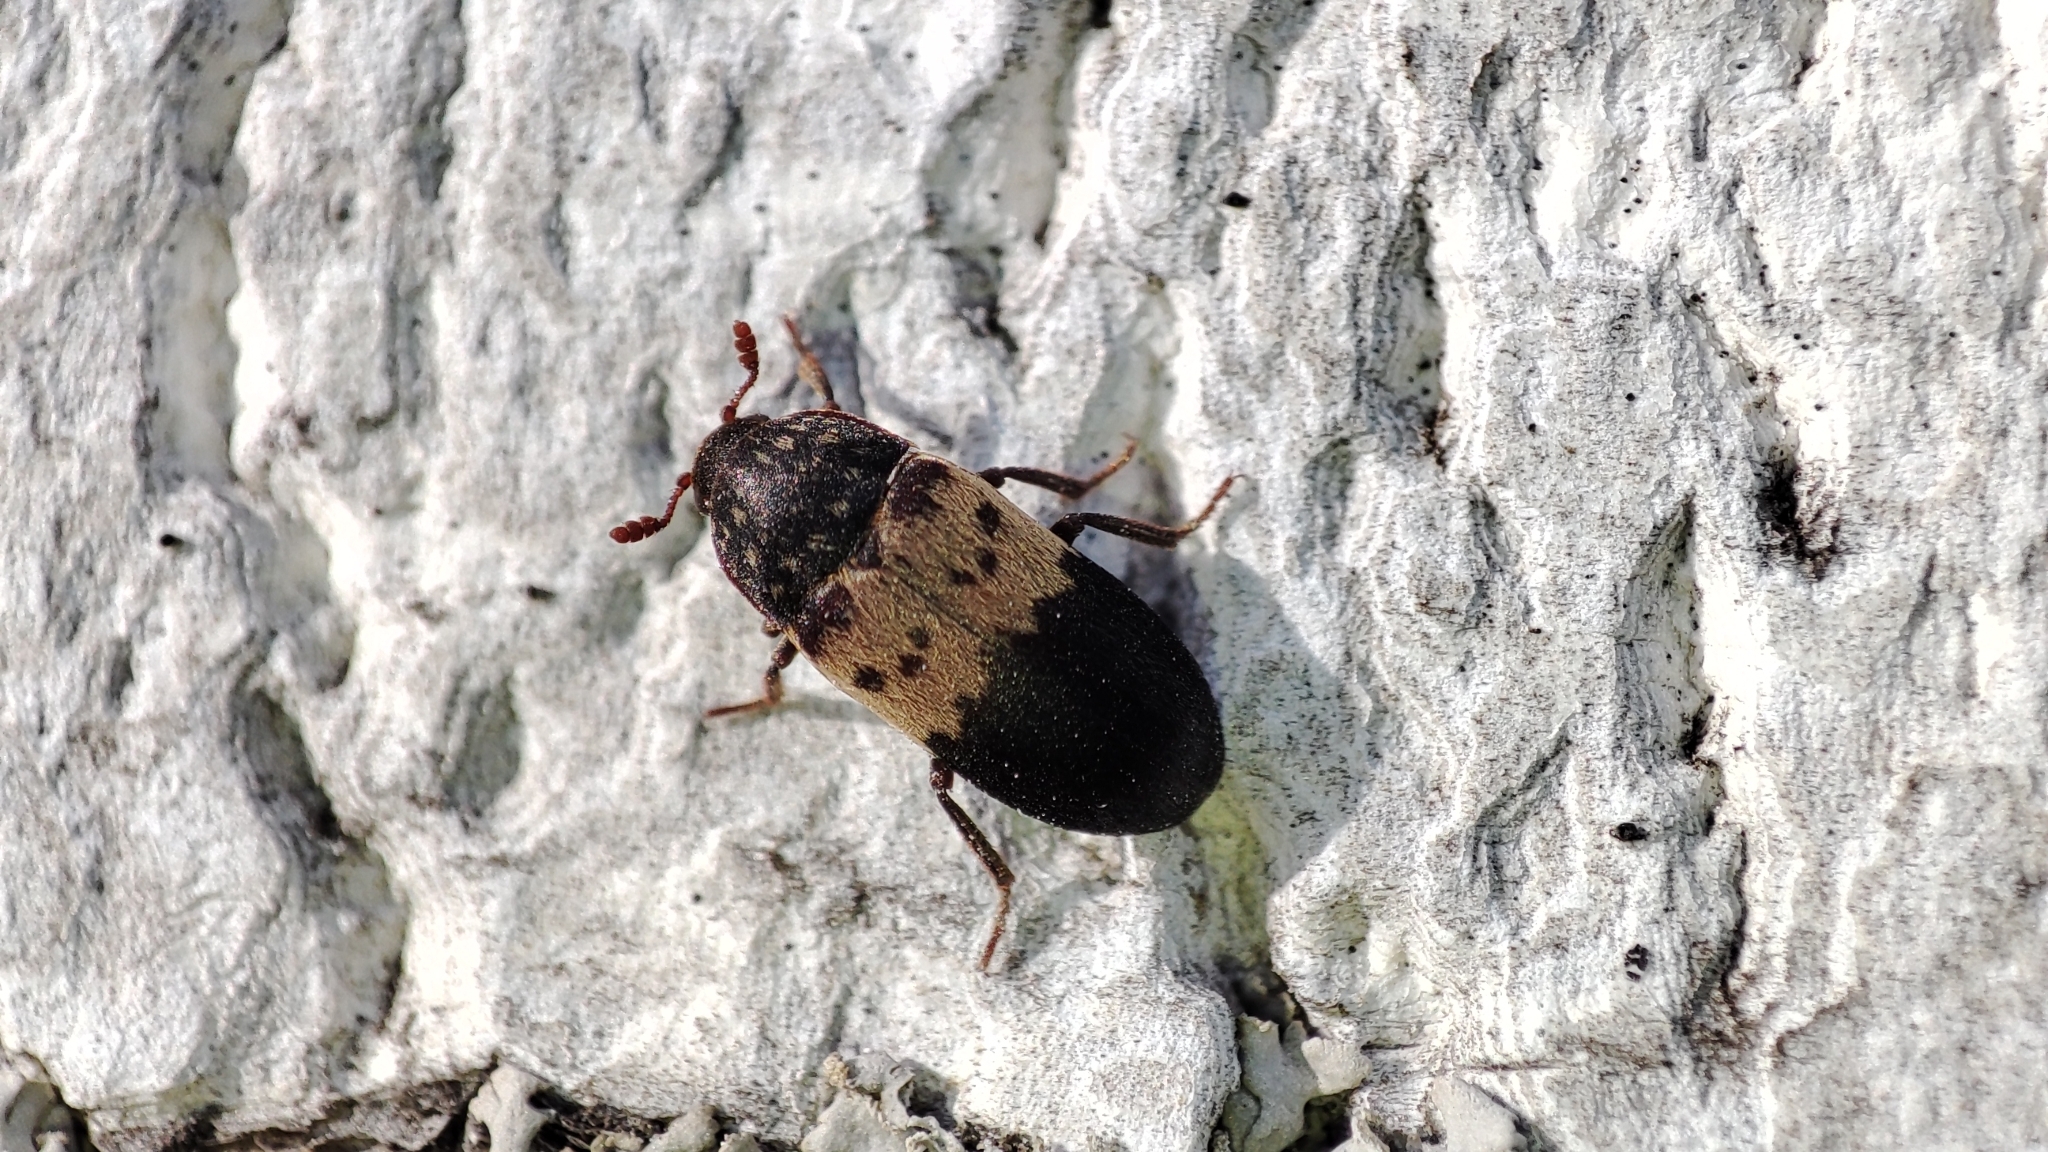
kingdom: Animalia
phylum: Arthropoda
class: Insecta
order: Coleoptera
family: Dermestidae
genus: Dermestes
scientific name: Dermestes lardarius
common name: Larder beetle
